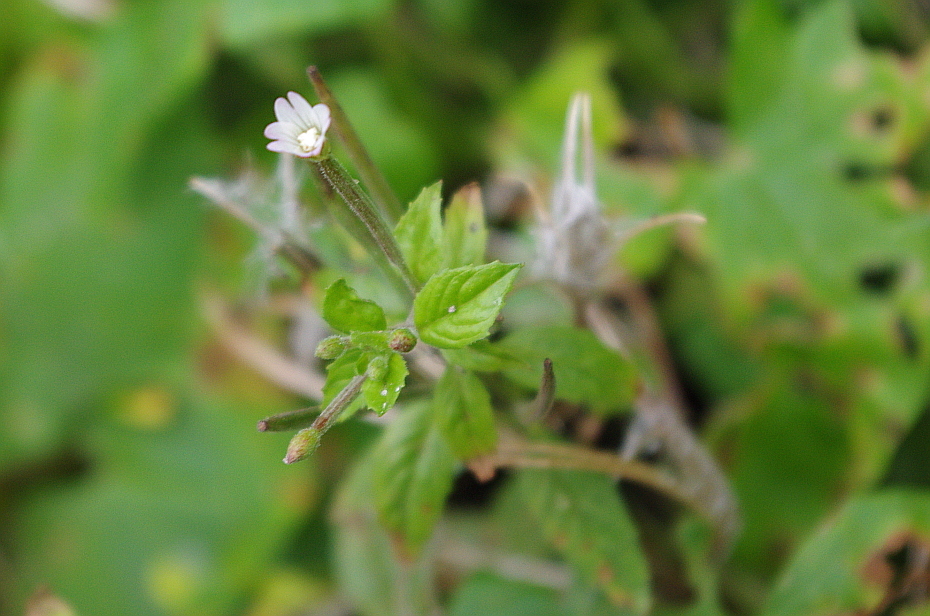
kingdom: Plantae
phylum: Tracheophyta
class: Magnoliopsida
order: Myrtales
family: Onagraceae
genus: Epilobium
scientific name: Epilobium pseudorubescens
